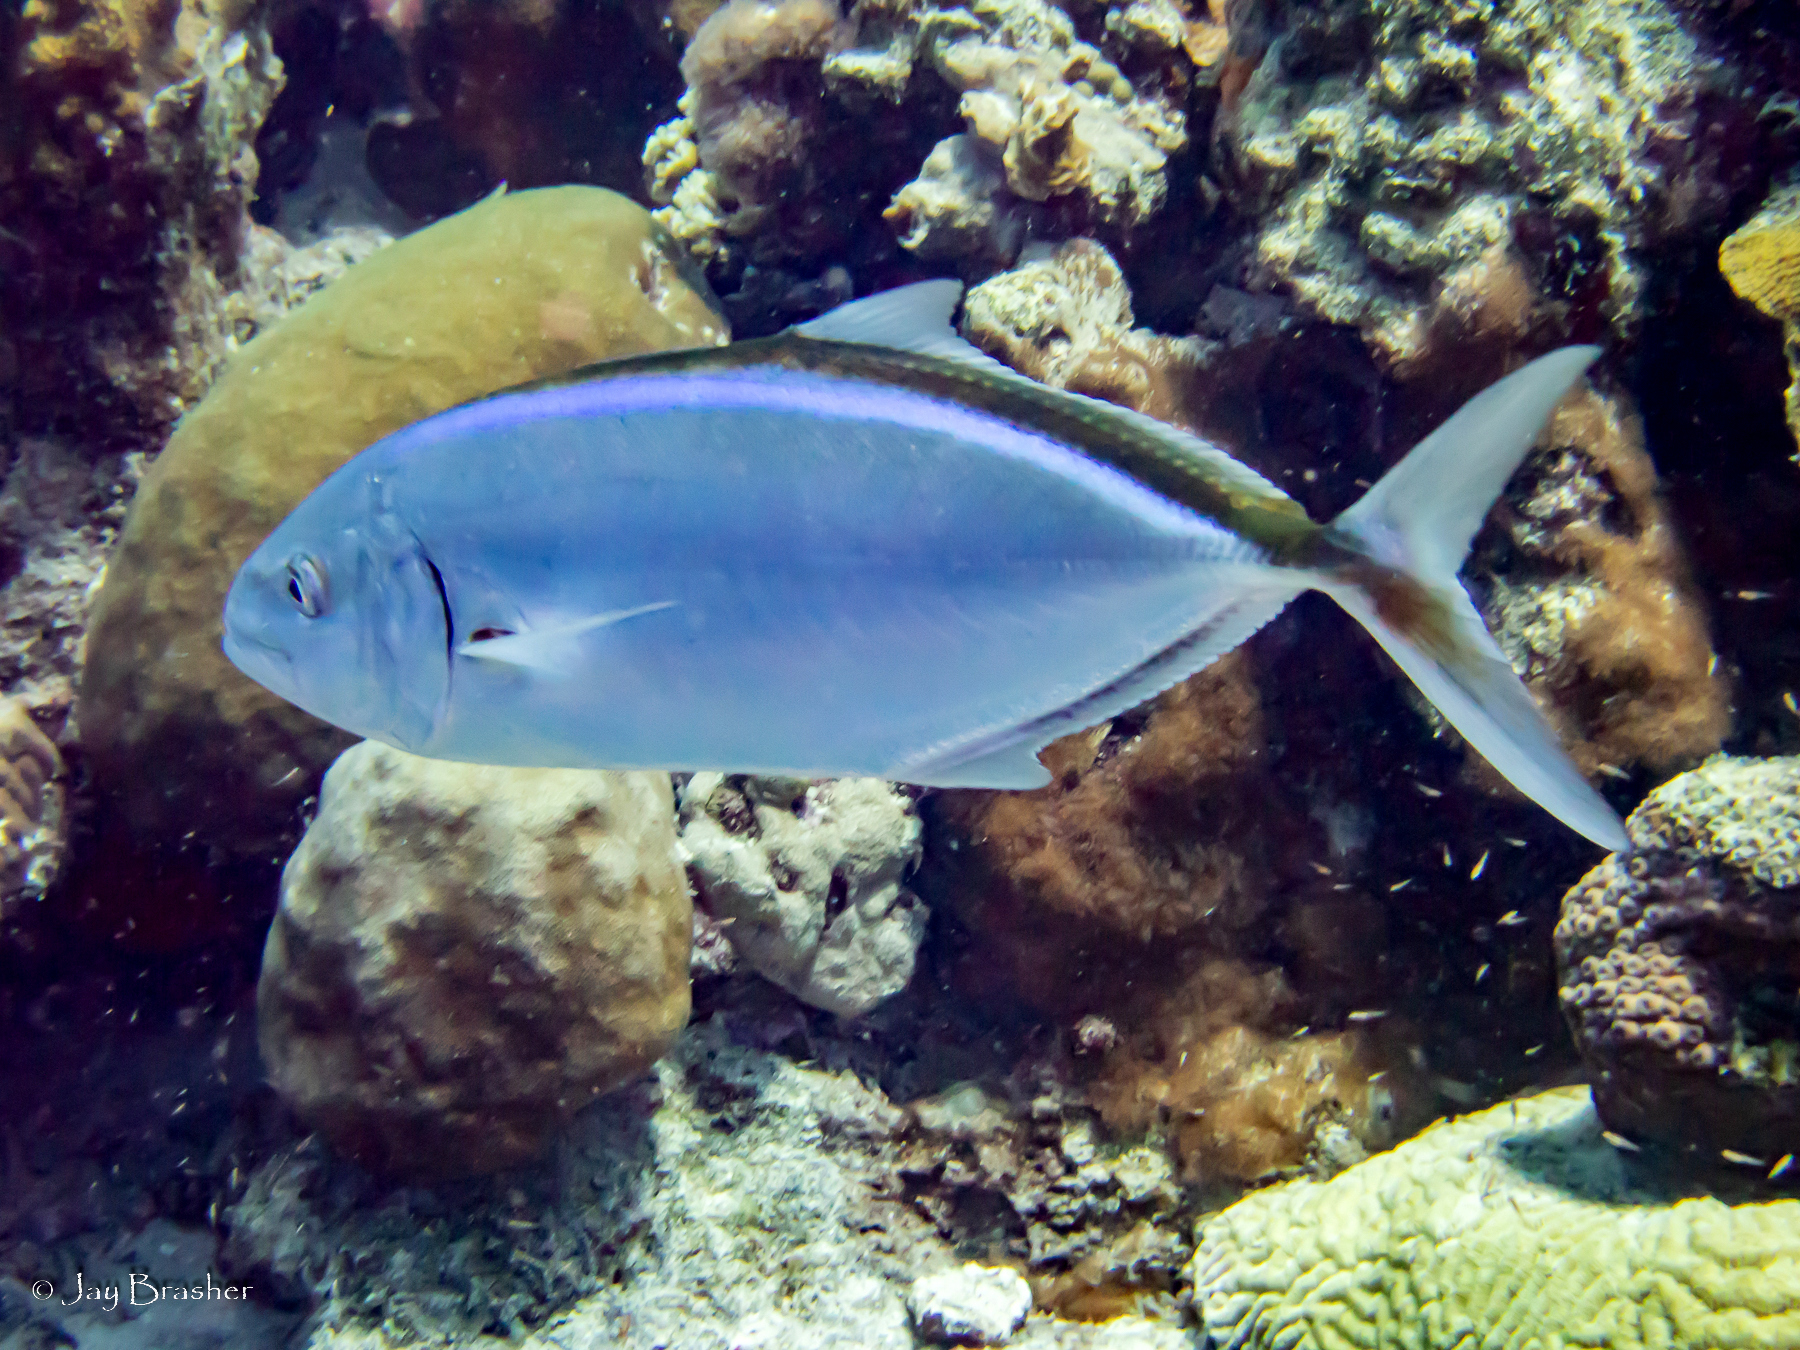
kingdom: Animalia
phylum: Chordata
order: Perciformes
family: Carangidae
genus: Caranx
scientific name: Caranx ruber
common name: Bar jack
